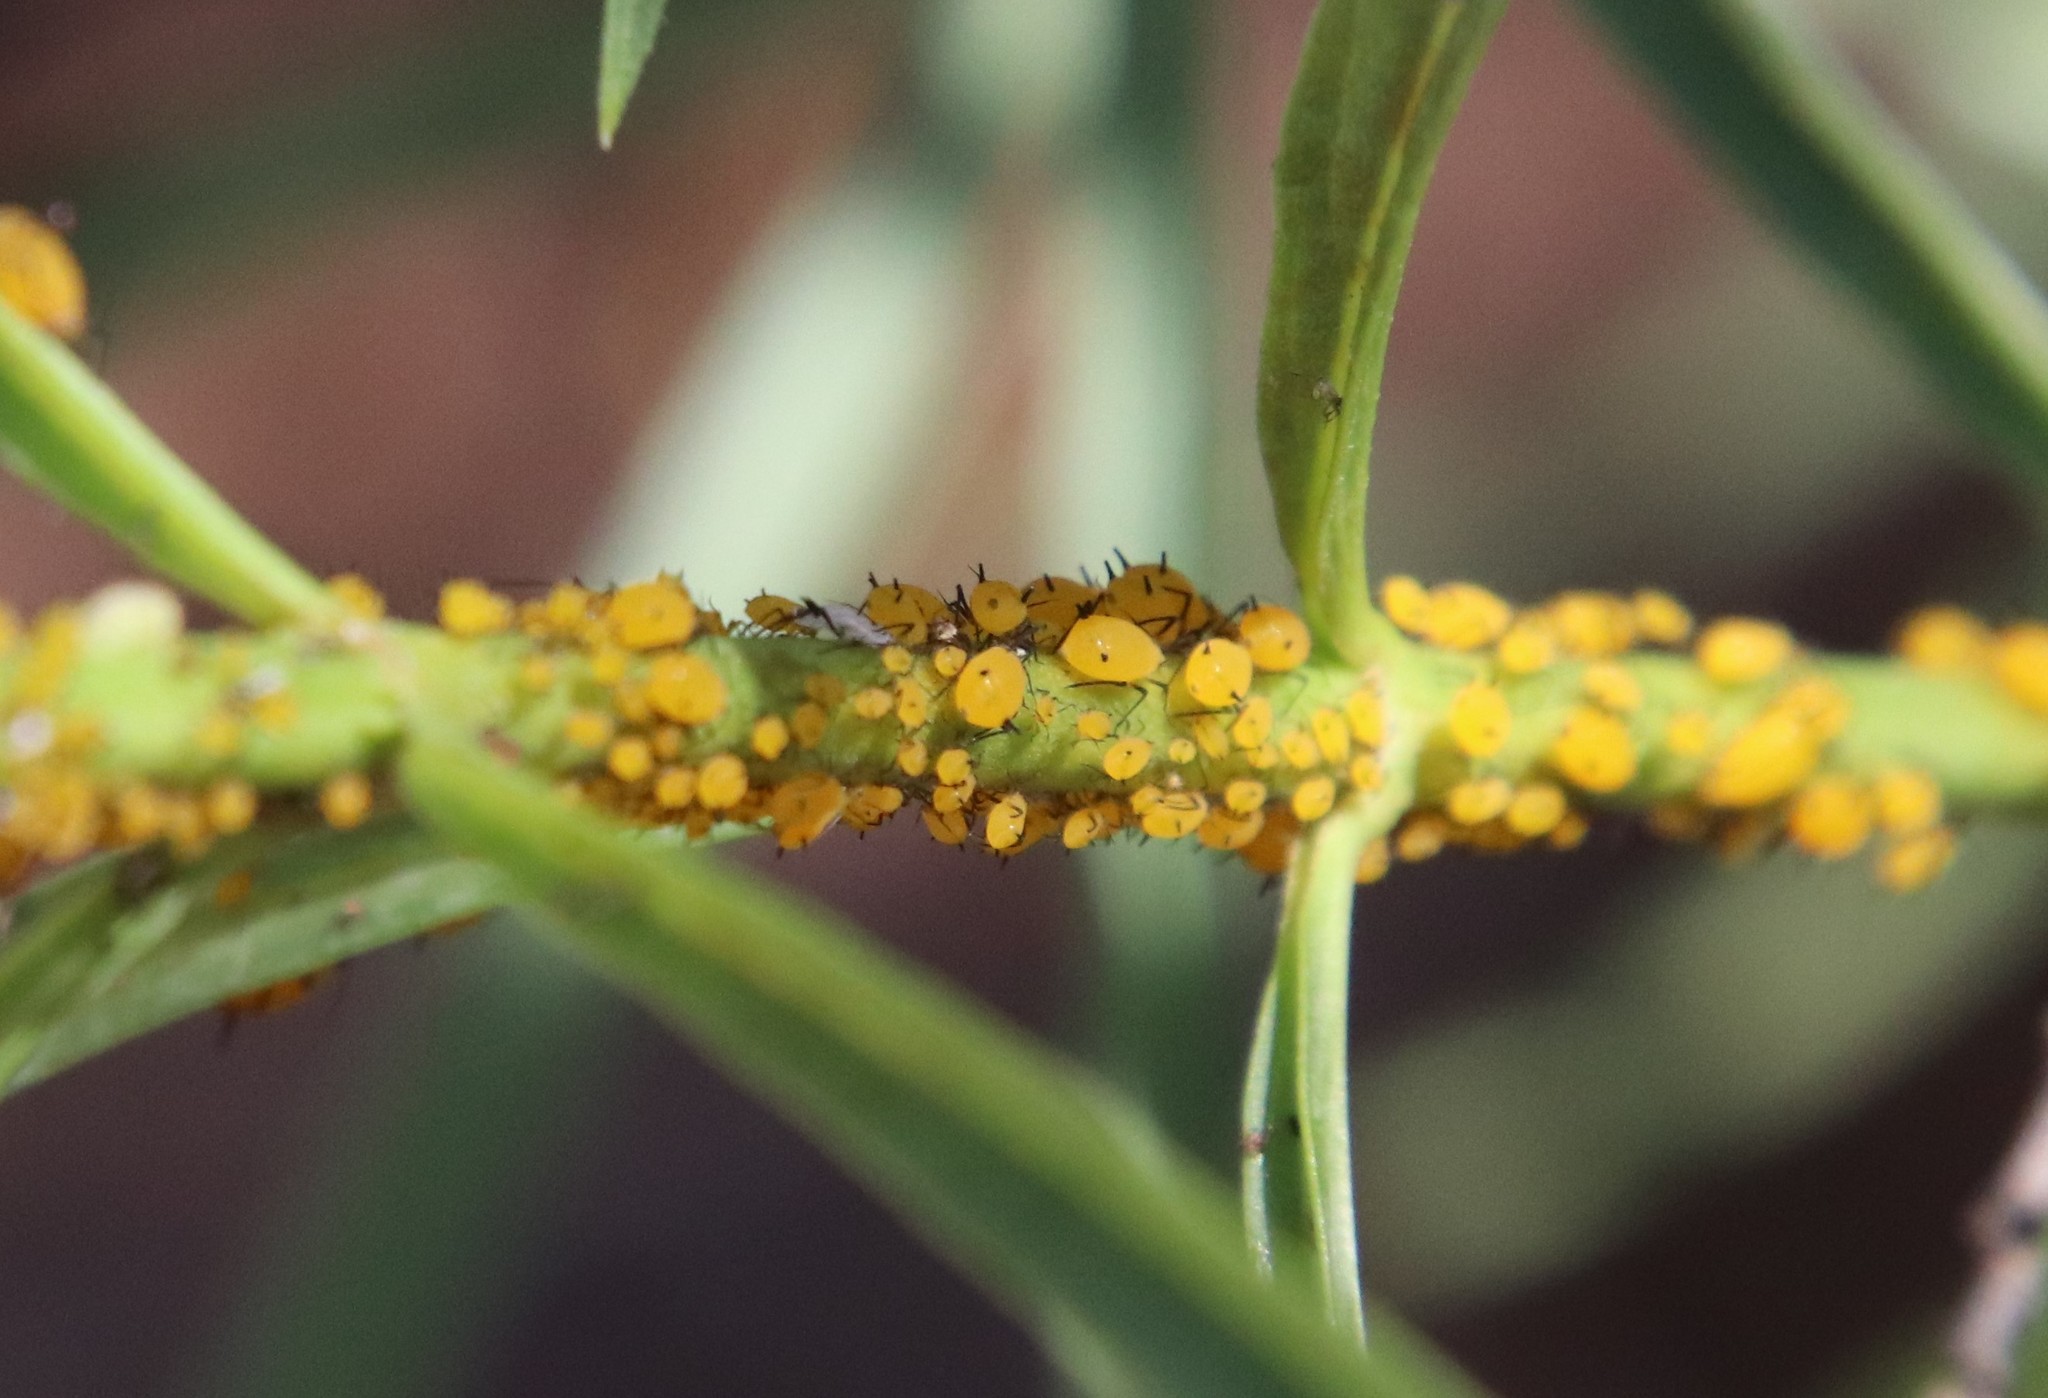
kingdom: Animalia
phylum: Arthropoda
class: Insecta
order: Hemiptera
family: Aphididae
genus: Aphis
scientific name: Aphis nerii
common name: Oleander aphid
